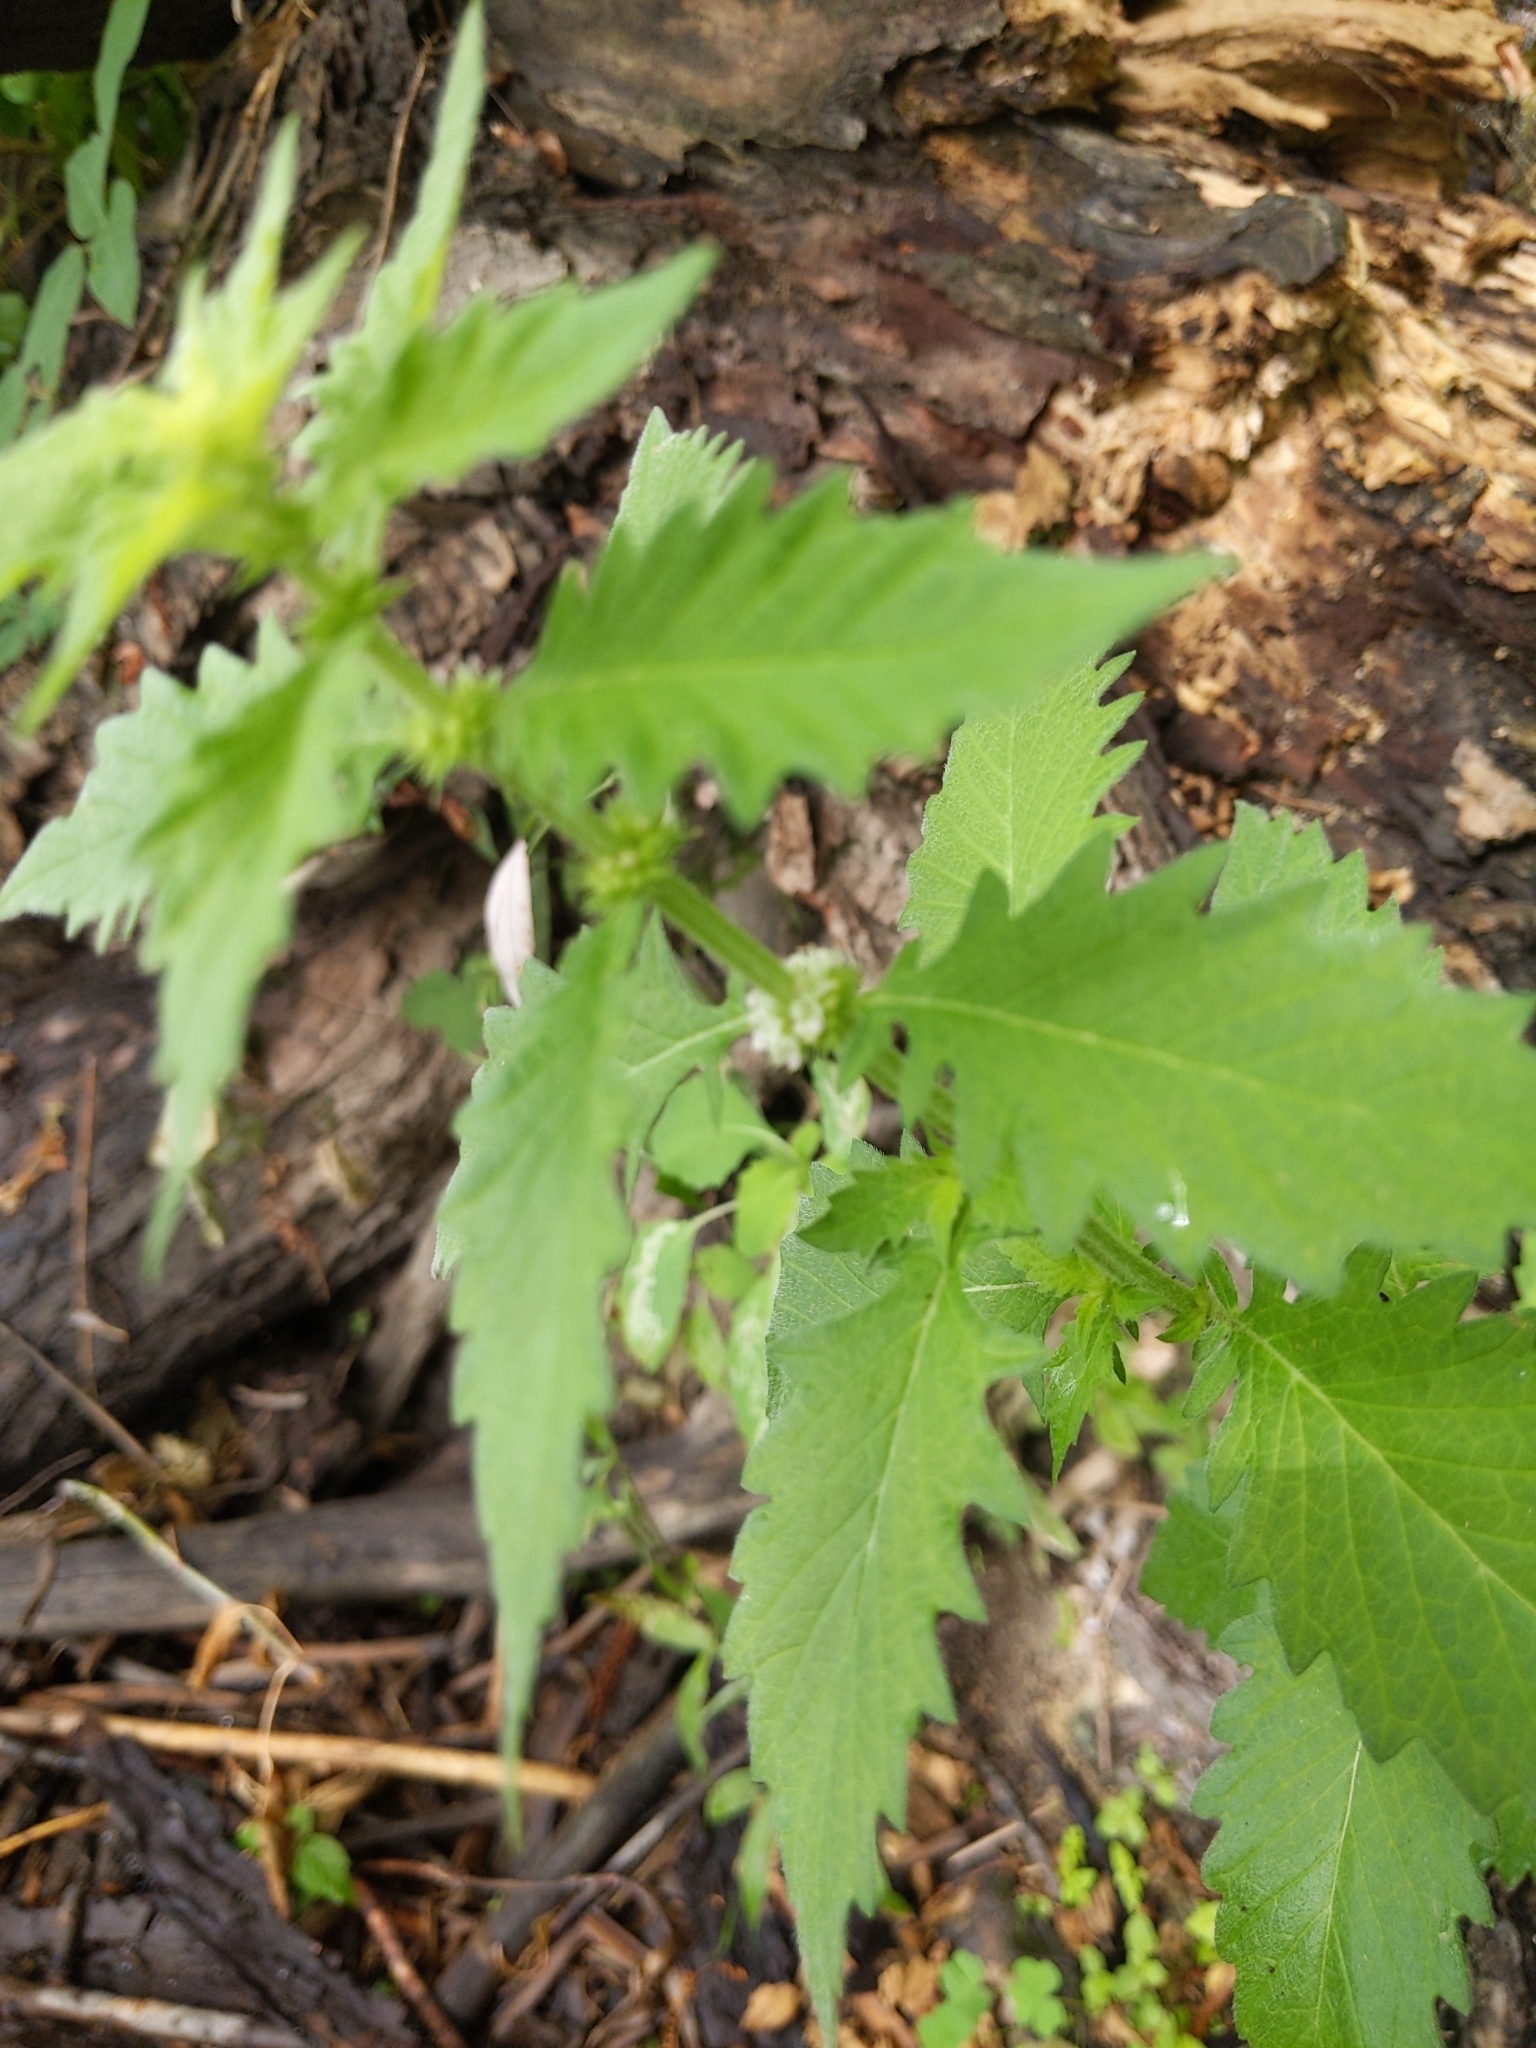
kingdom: Plantae
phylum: Tracheophyta
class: Magnoliopsida
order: Lamiales
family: Lamiaceae
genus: Lycopus
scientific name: Lycopus europaeus
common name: European bugleweed
